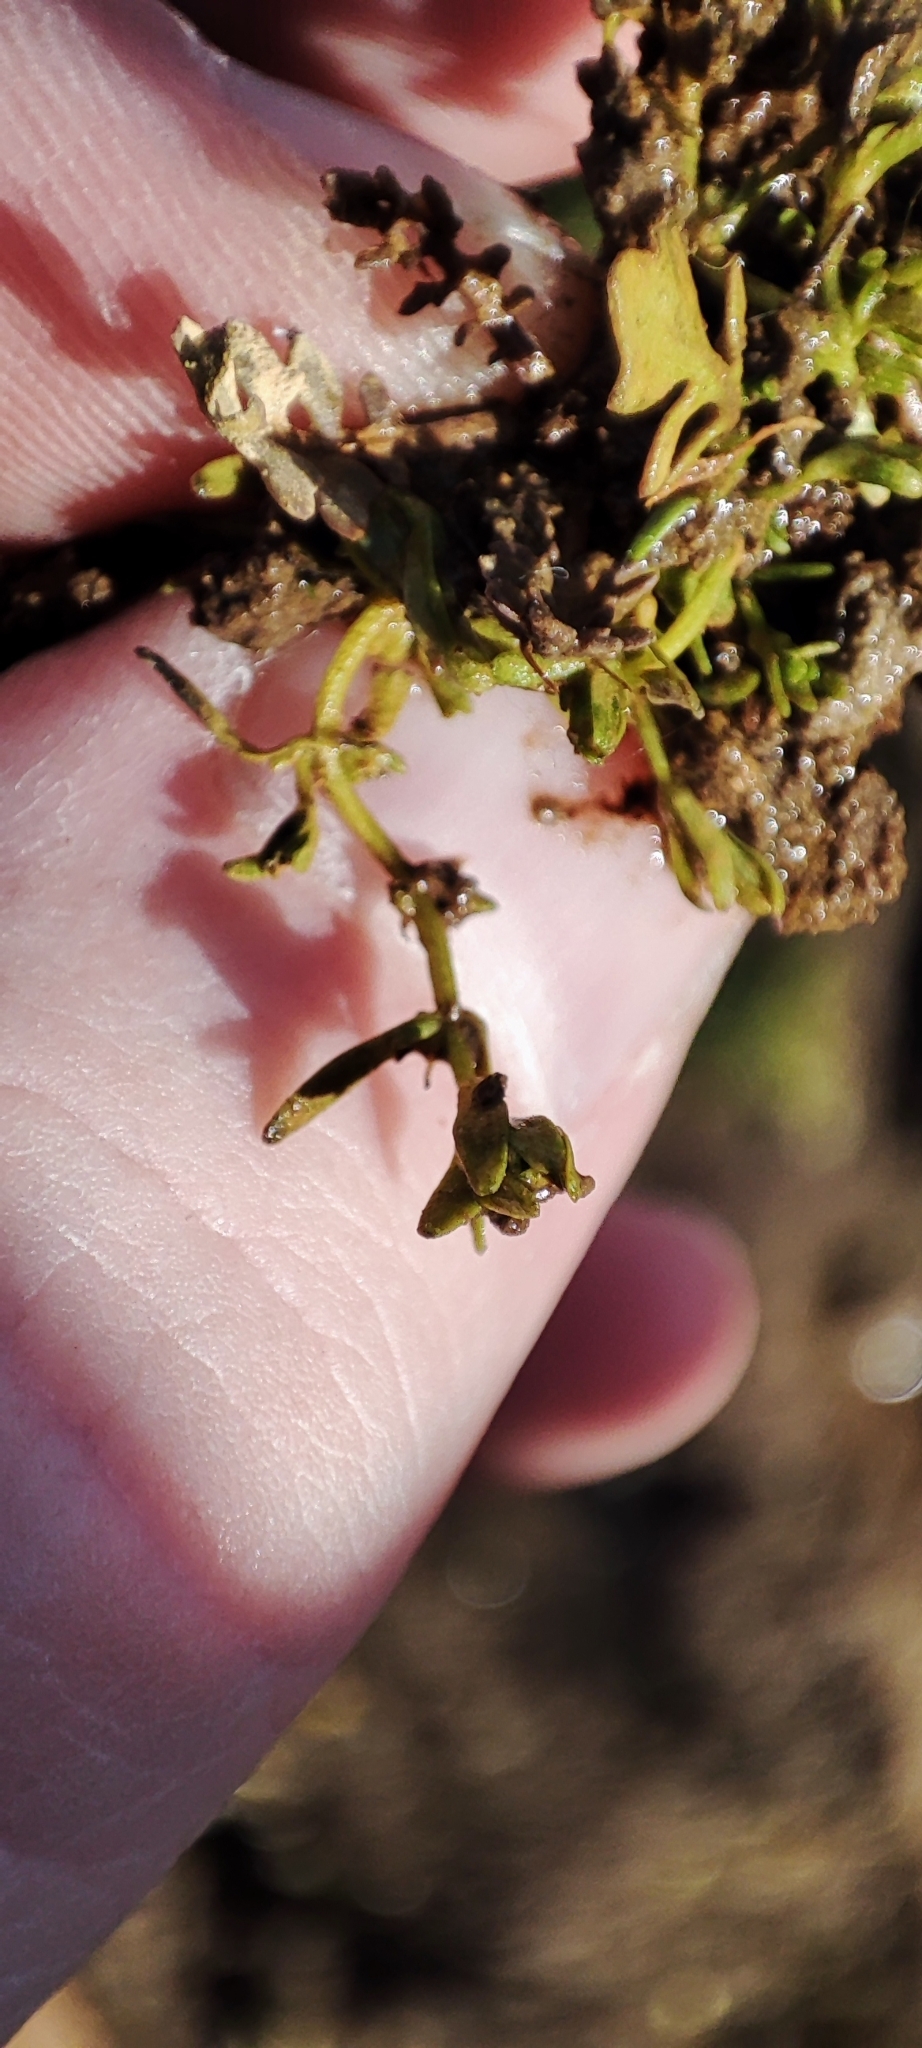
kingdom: Plantae
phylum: Tracheophyta
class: Magnoliopsida
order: Lamiales
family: Plantaginaceae
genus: Callitriche
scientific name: Callitriche palustris
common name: Spring water-starwort
